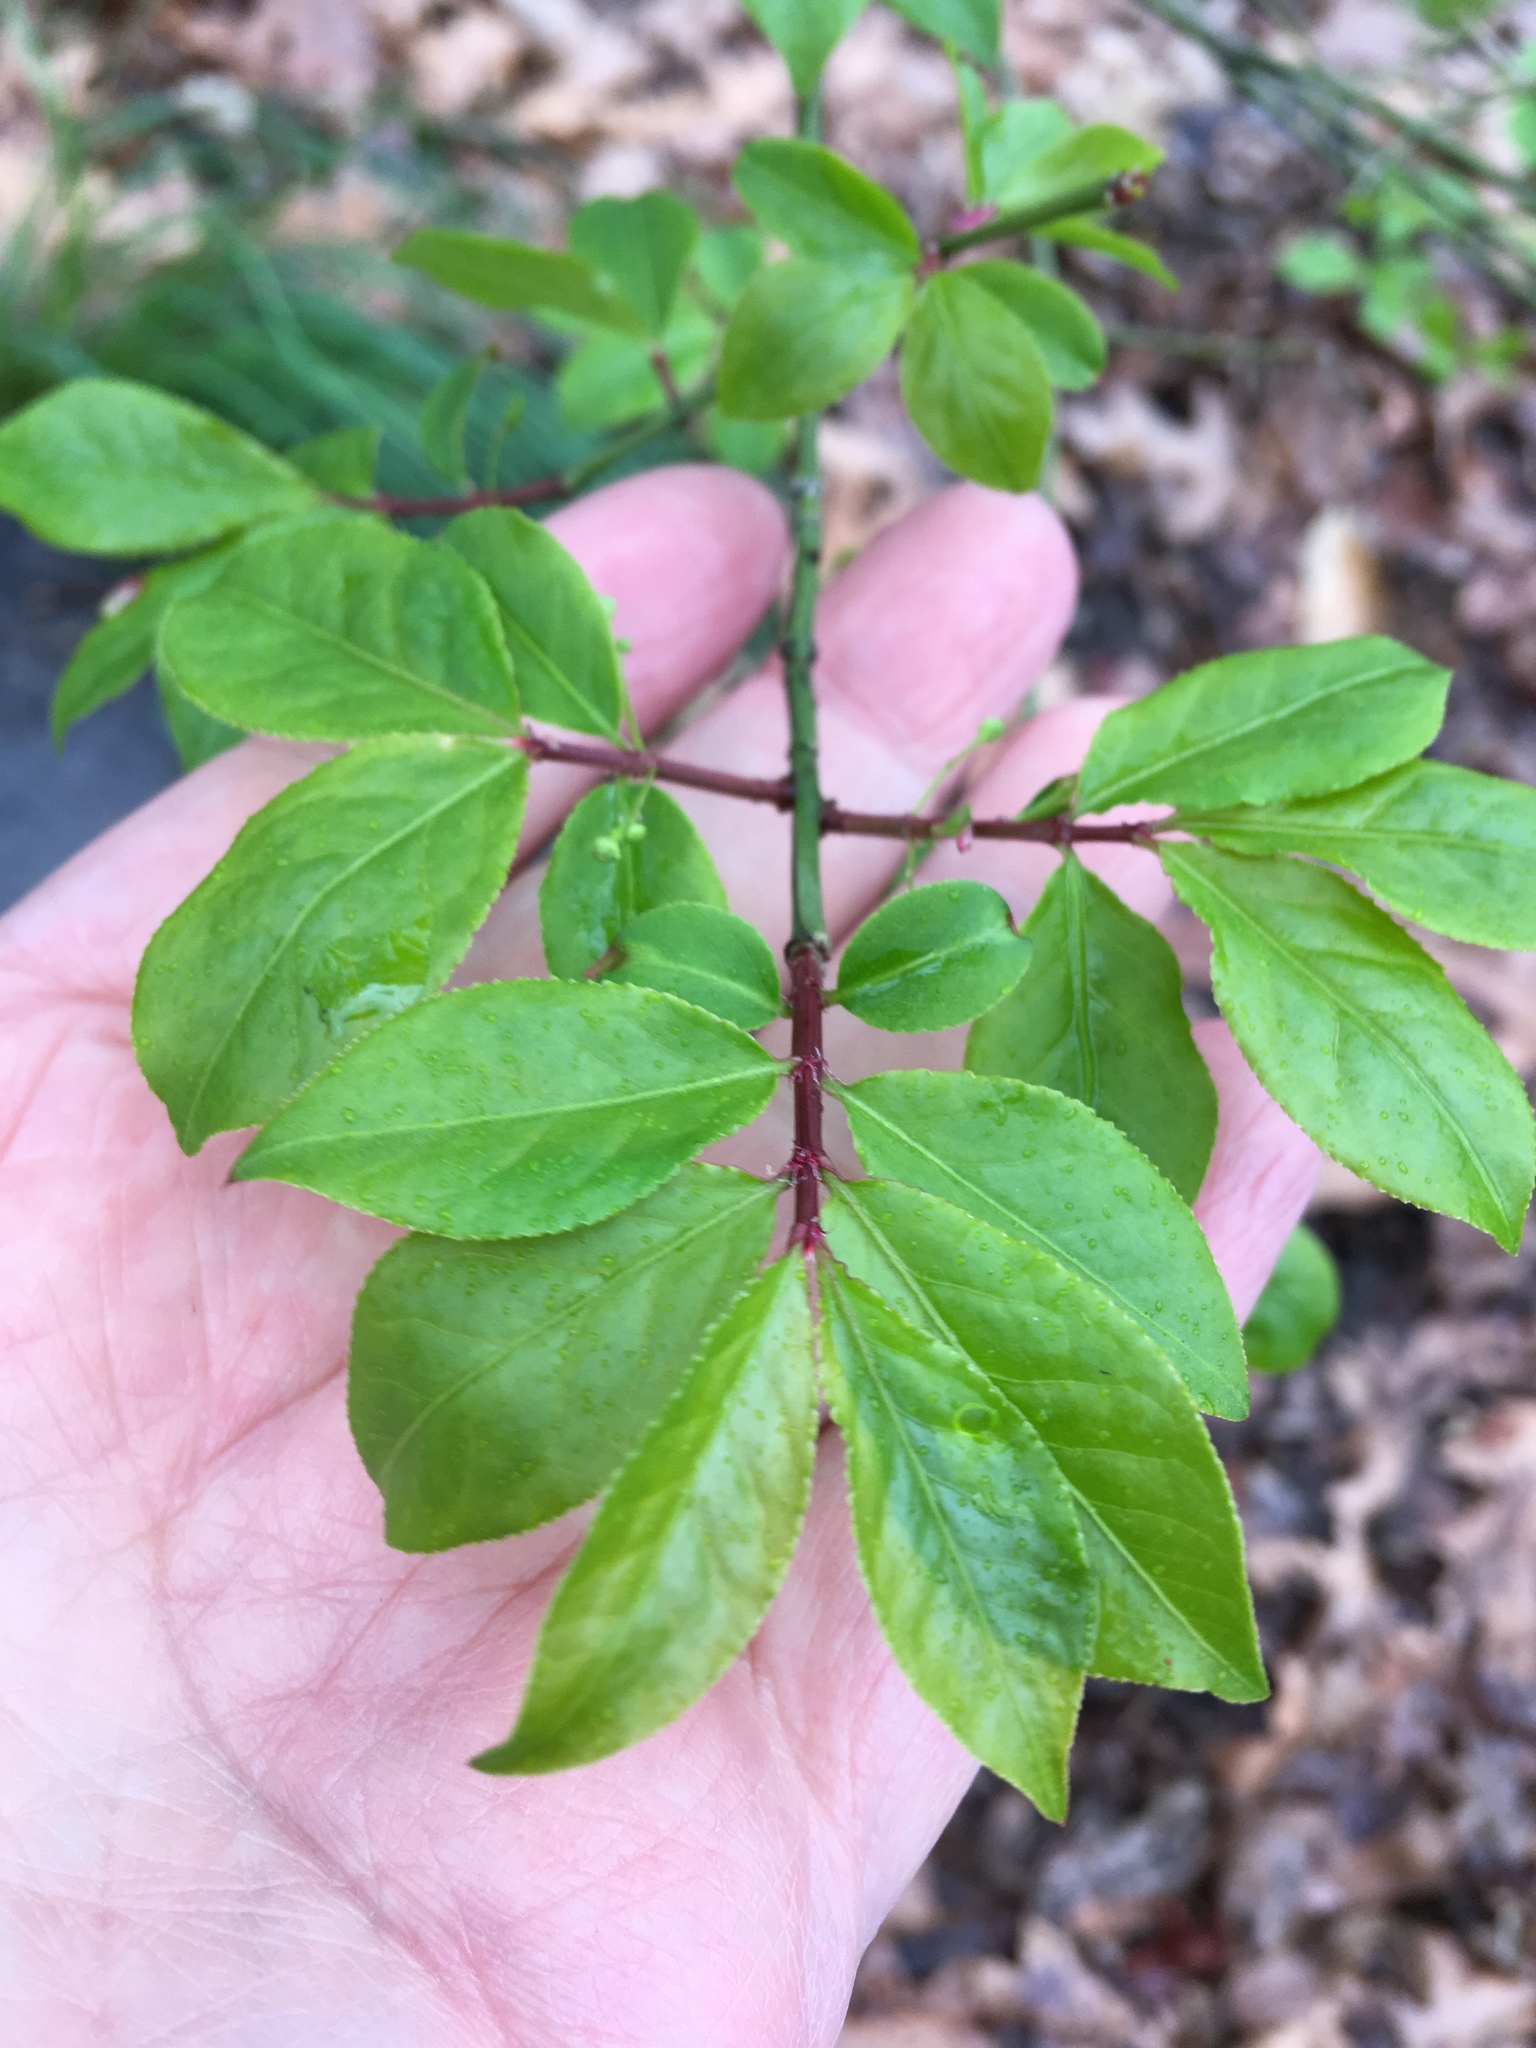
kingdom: Plantae
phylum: Tracheophyta
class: Magnoliopsida
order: Celastrales
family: Celastraceae
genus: Euonymus
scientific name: Euonymus alatus
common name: Winged euonymus
